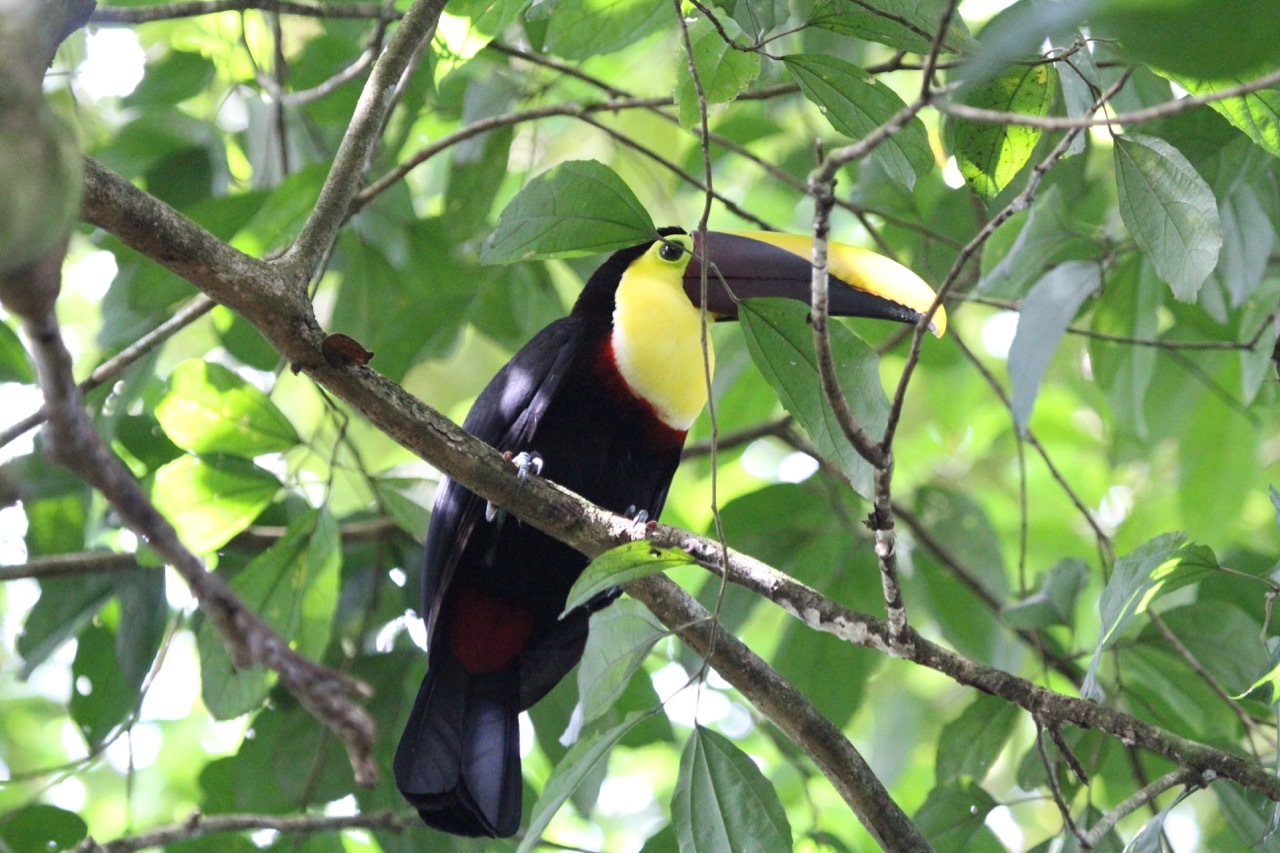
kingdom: Animalia
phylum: Chordata
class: Aves
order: Piciformes
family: Ramphastidae
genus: Ramphastos
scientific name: Ramphastos ambiguus
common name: Yellow-throated toucan
